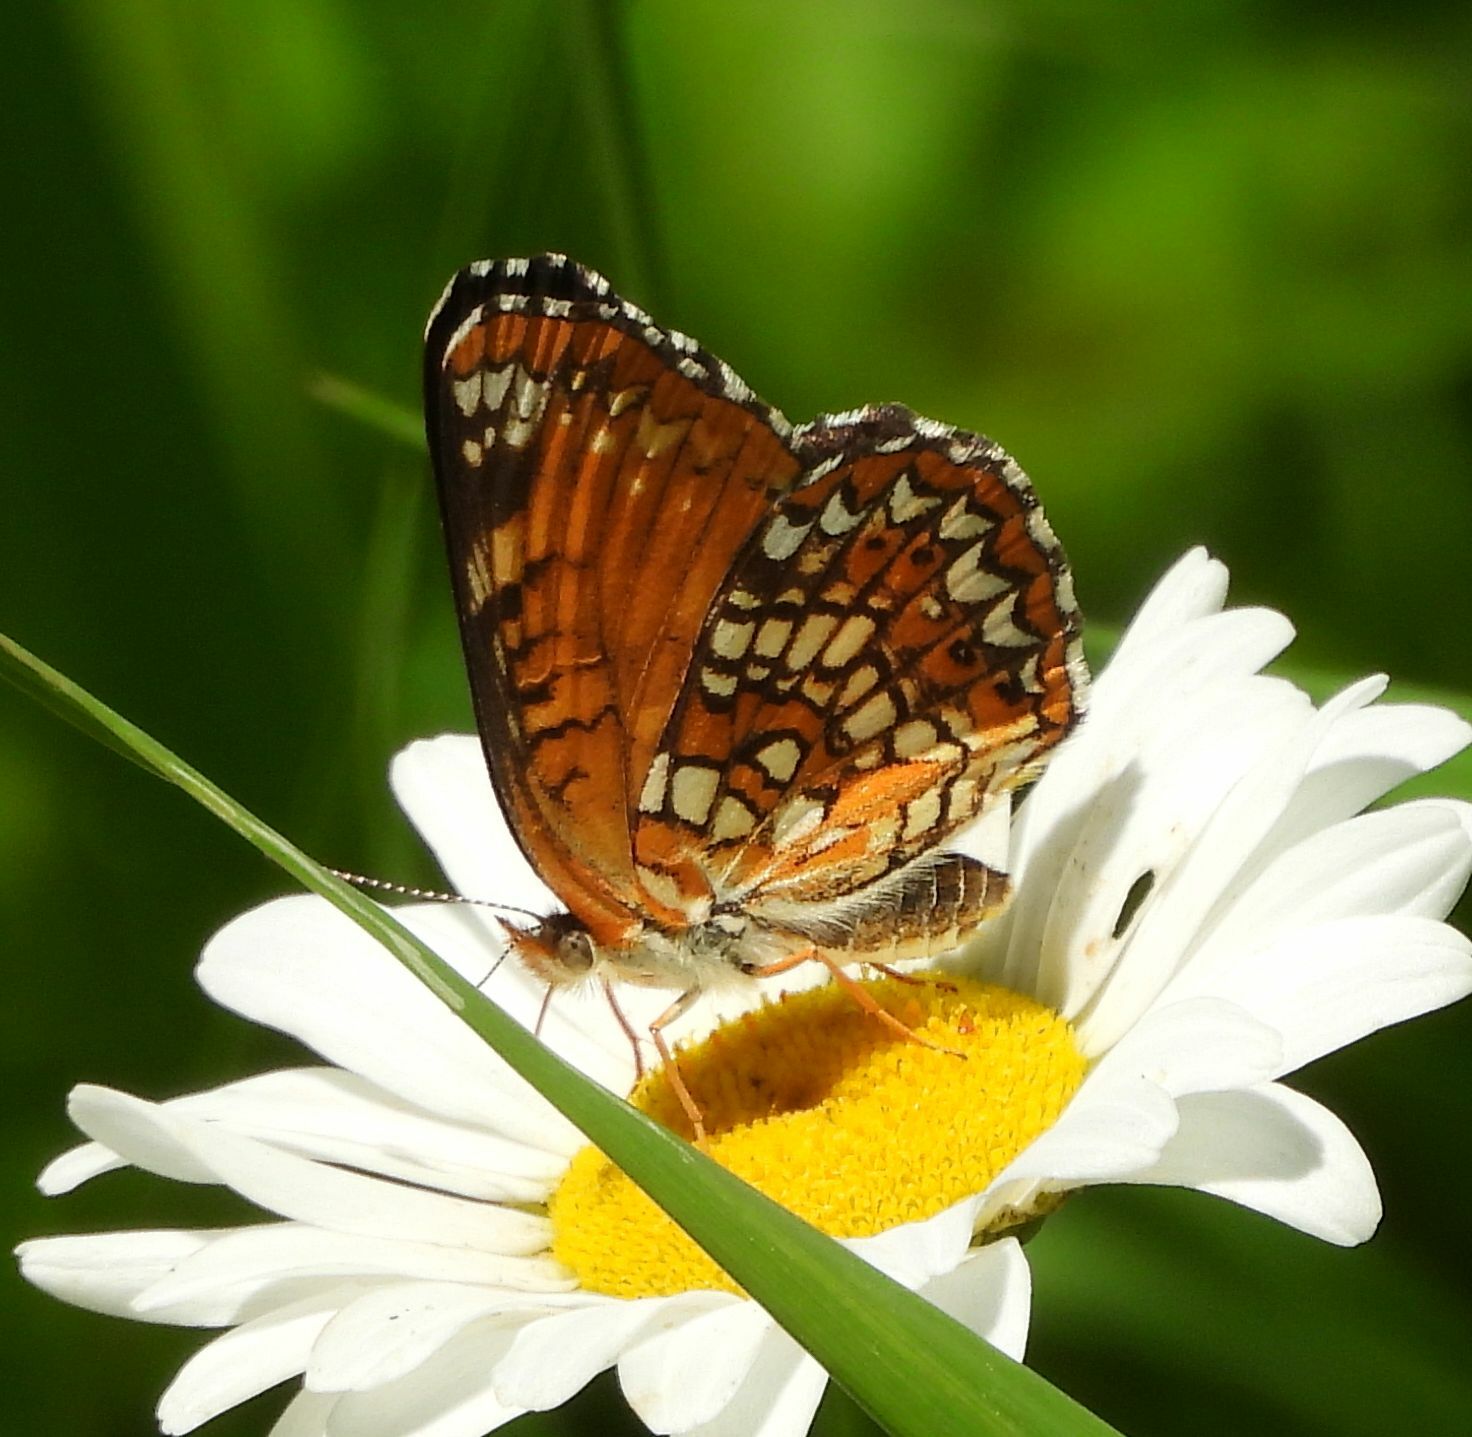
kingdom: Animalia
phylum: Arthropoda
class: Insecta
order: Lepidoptera
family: Nymphalidae
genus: Chlosyne
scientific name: Chlosyne harrisii
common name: Harris's checkerspot
